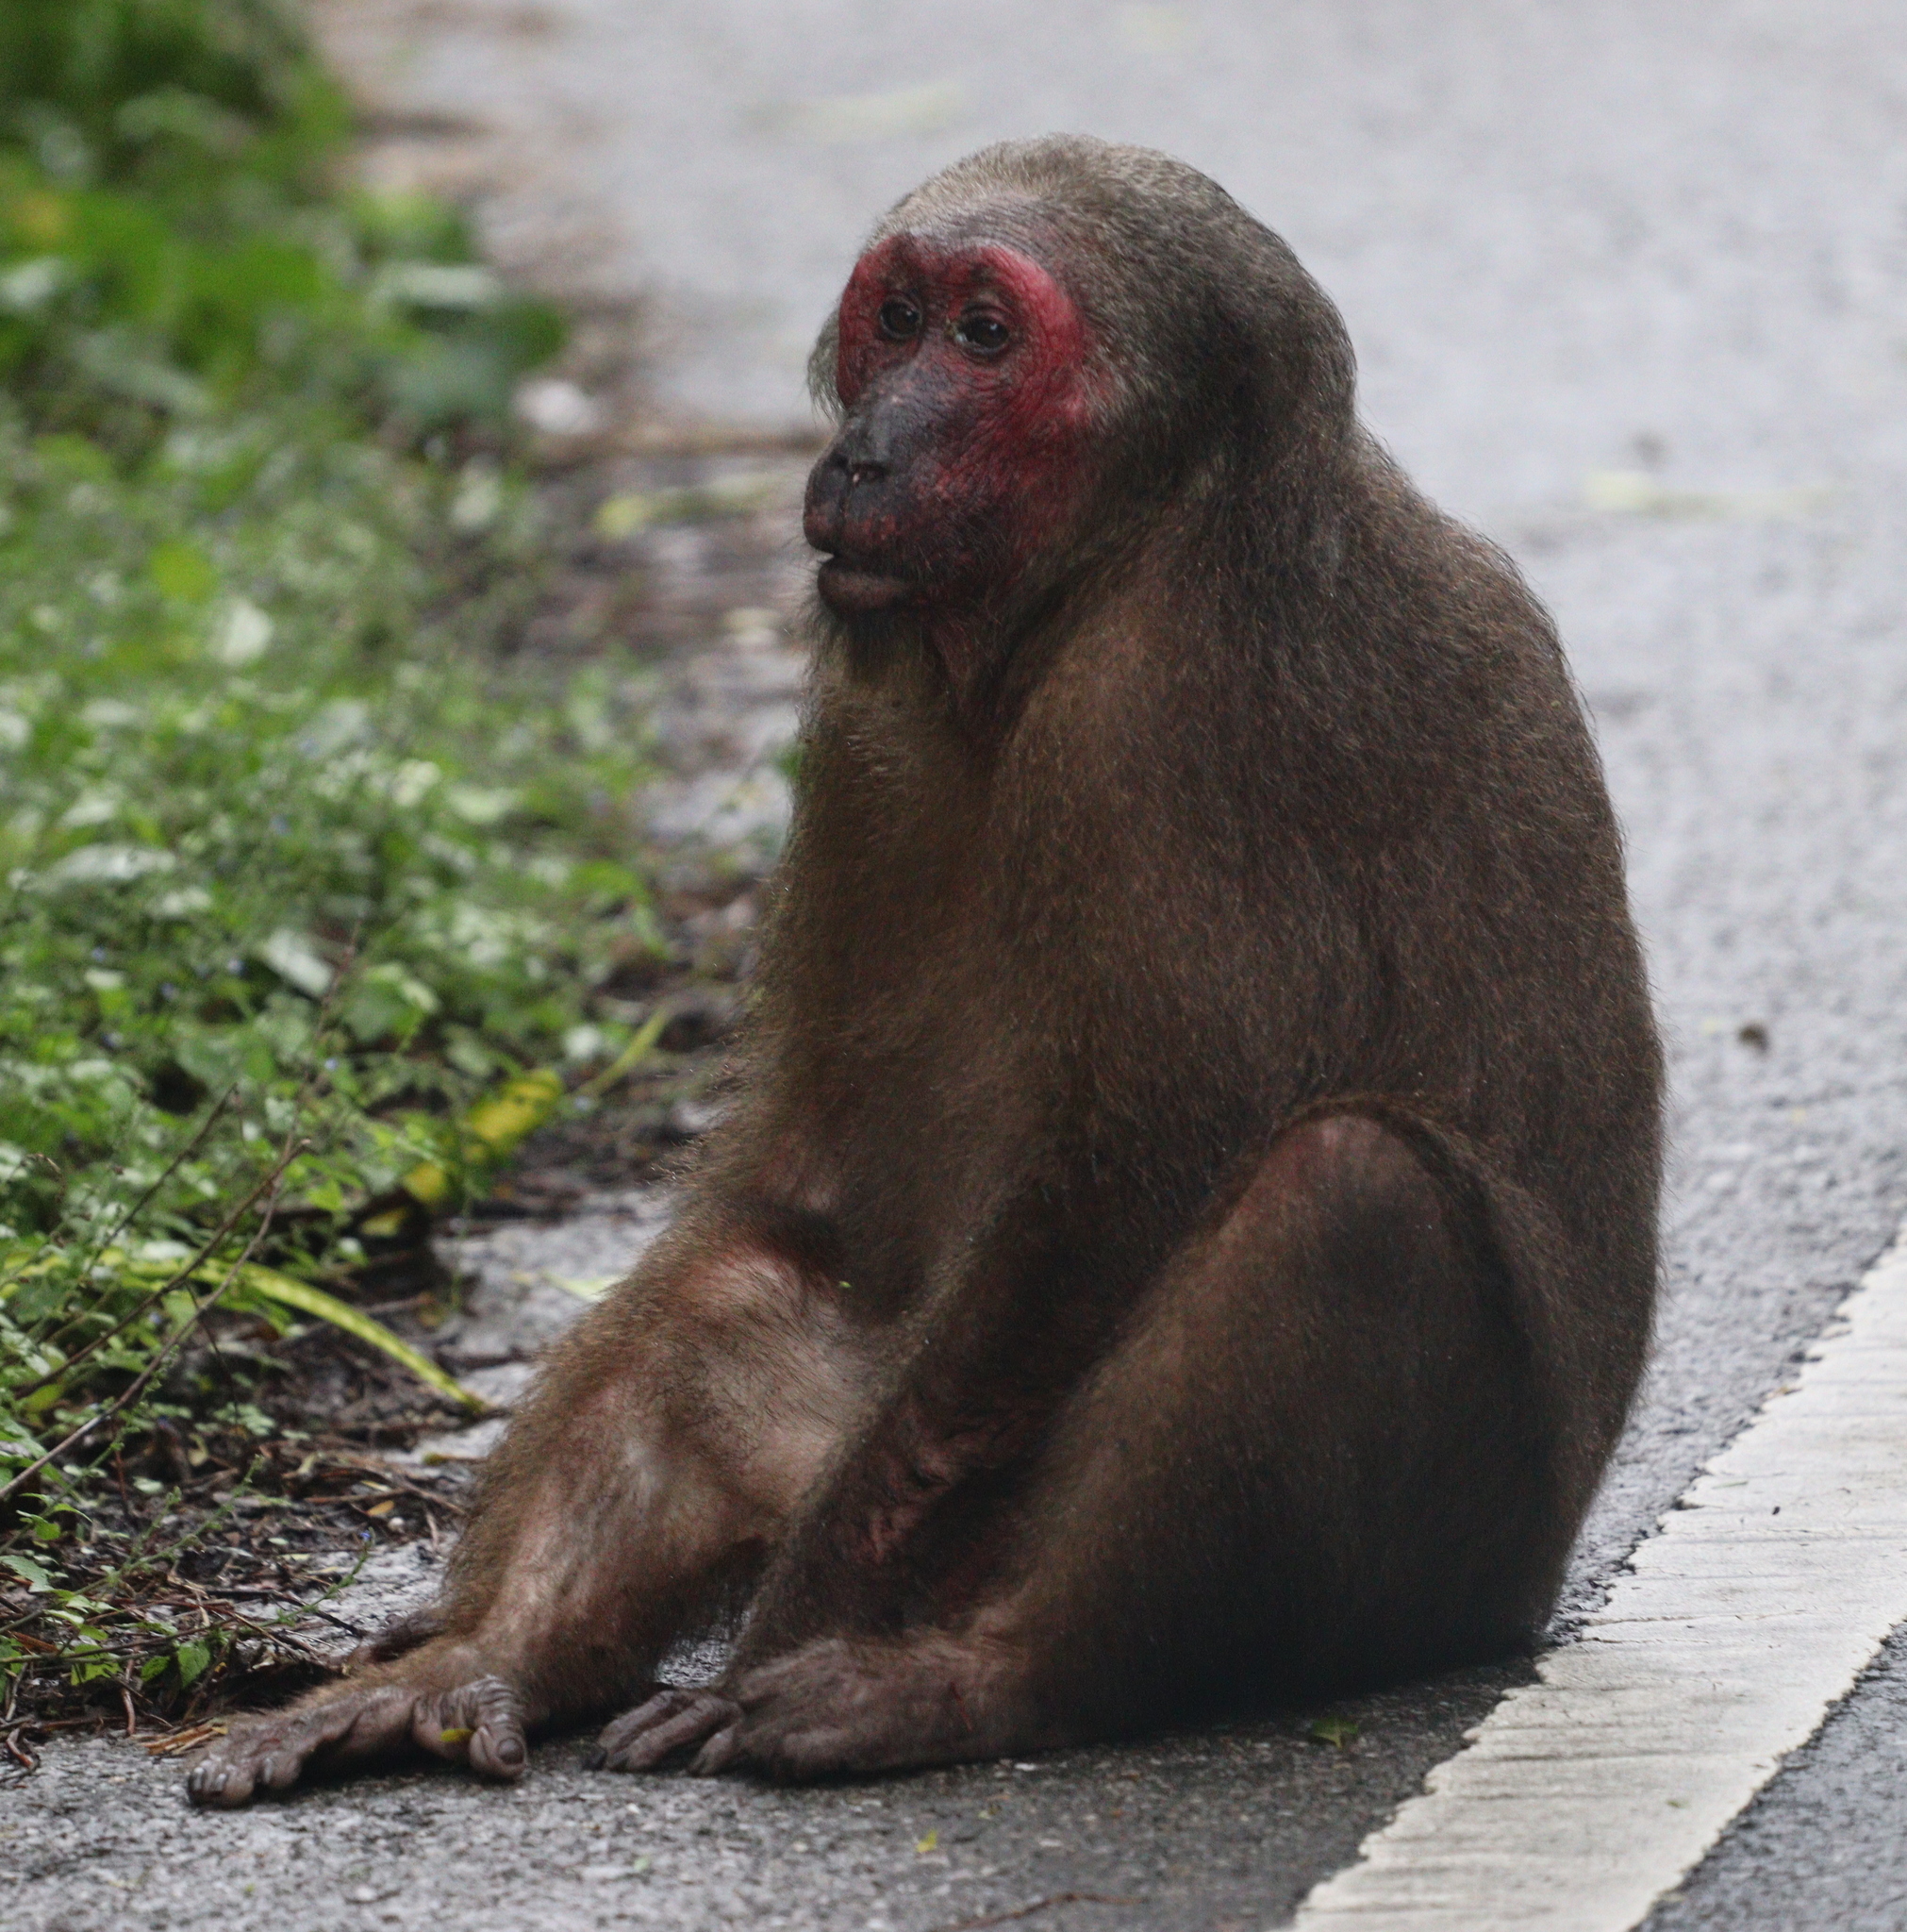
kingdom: Animalia
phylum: Chordata
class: Mammalia
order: Primates
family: Cercopithecidae
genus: Macaca
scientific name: Macaca arctoides
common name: Stump-tailed macaque
